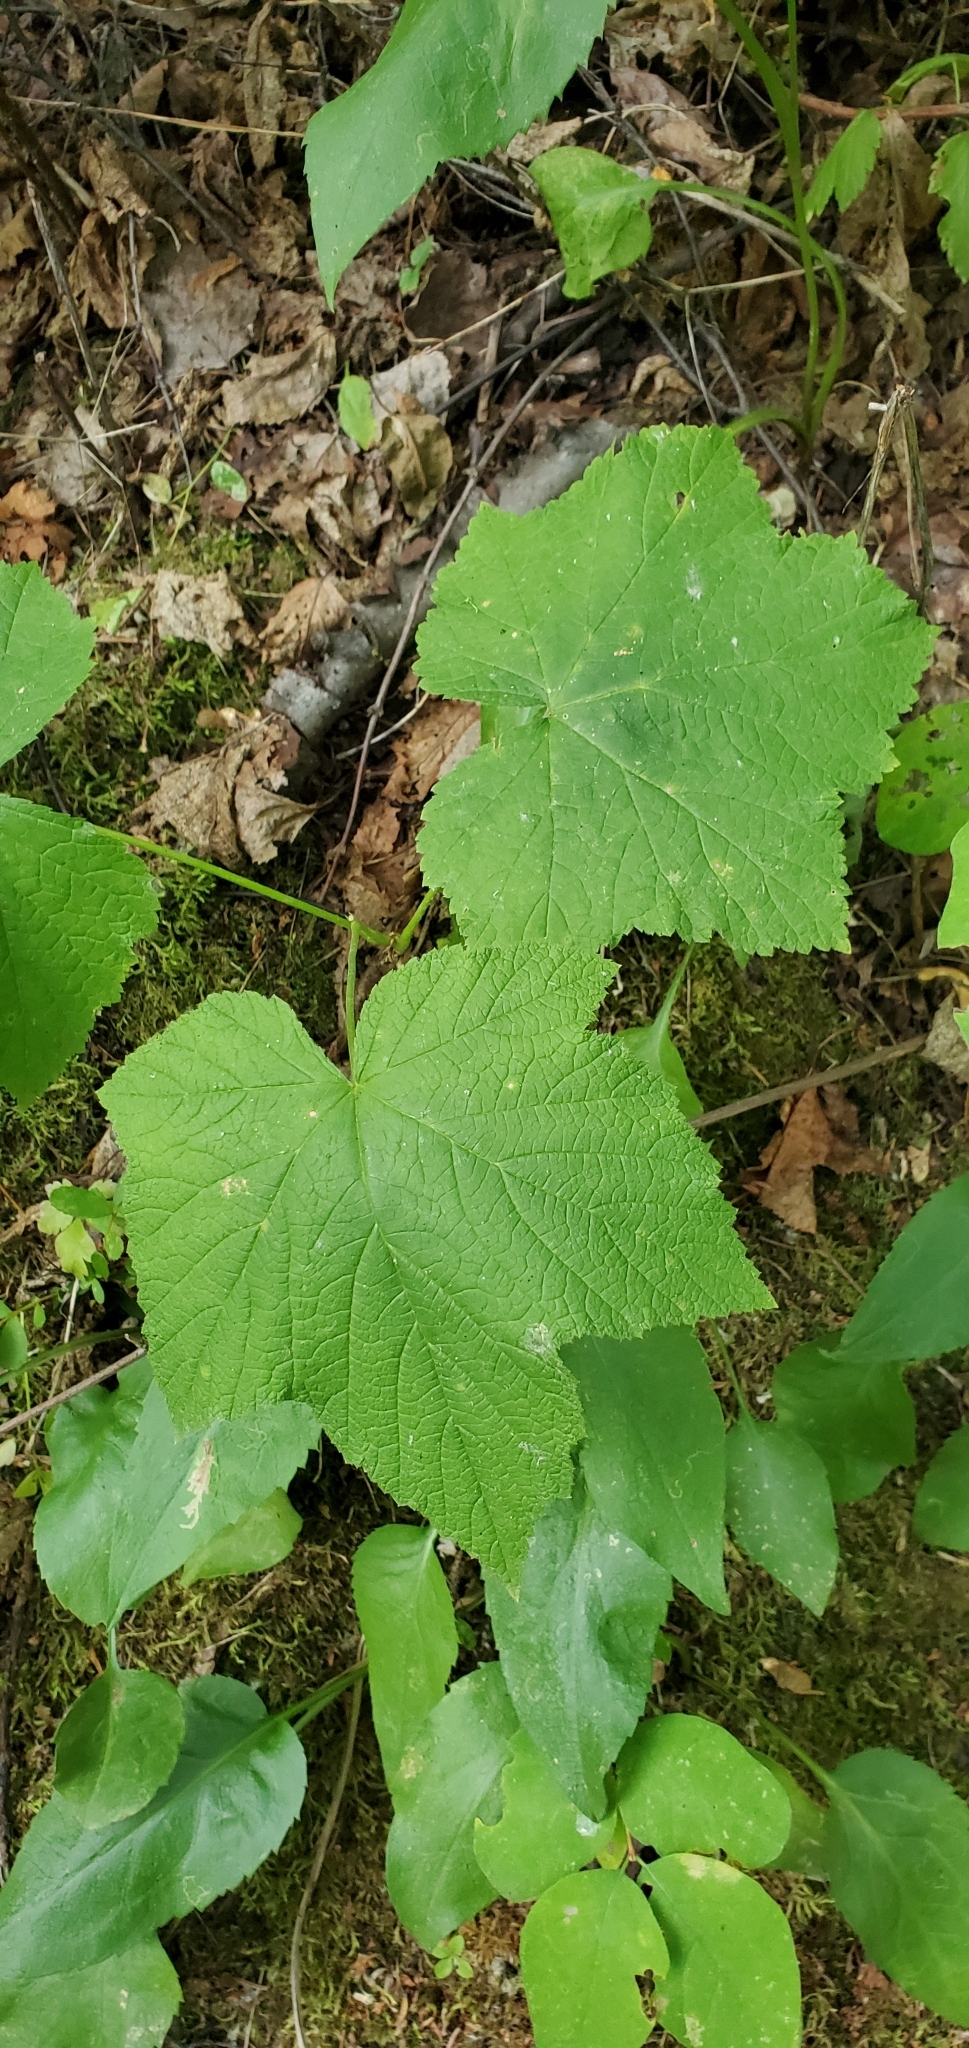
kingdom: Plantae
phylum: Tracheophyta
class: Magnoliopsida
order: Rosales
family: Rosaceae
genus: Rubus
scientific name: Rubus parviflorus
